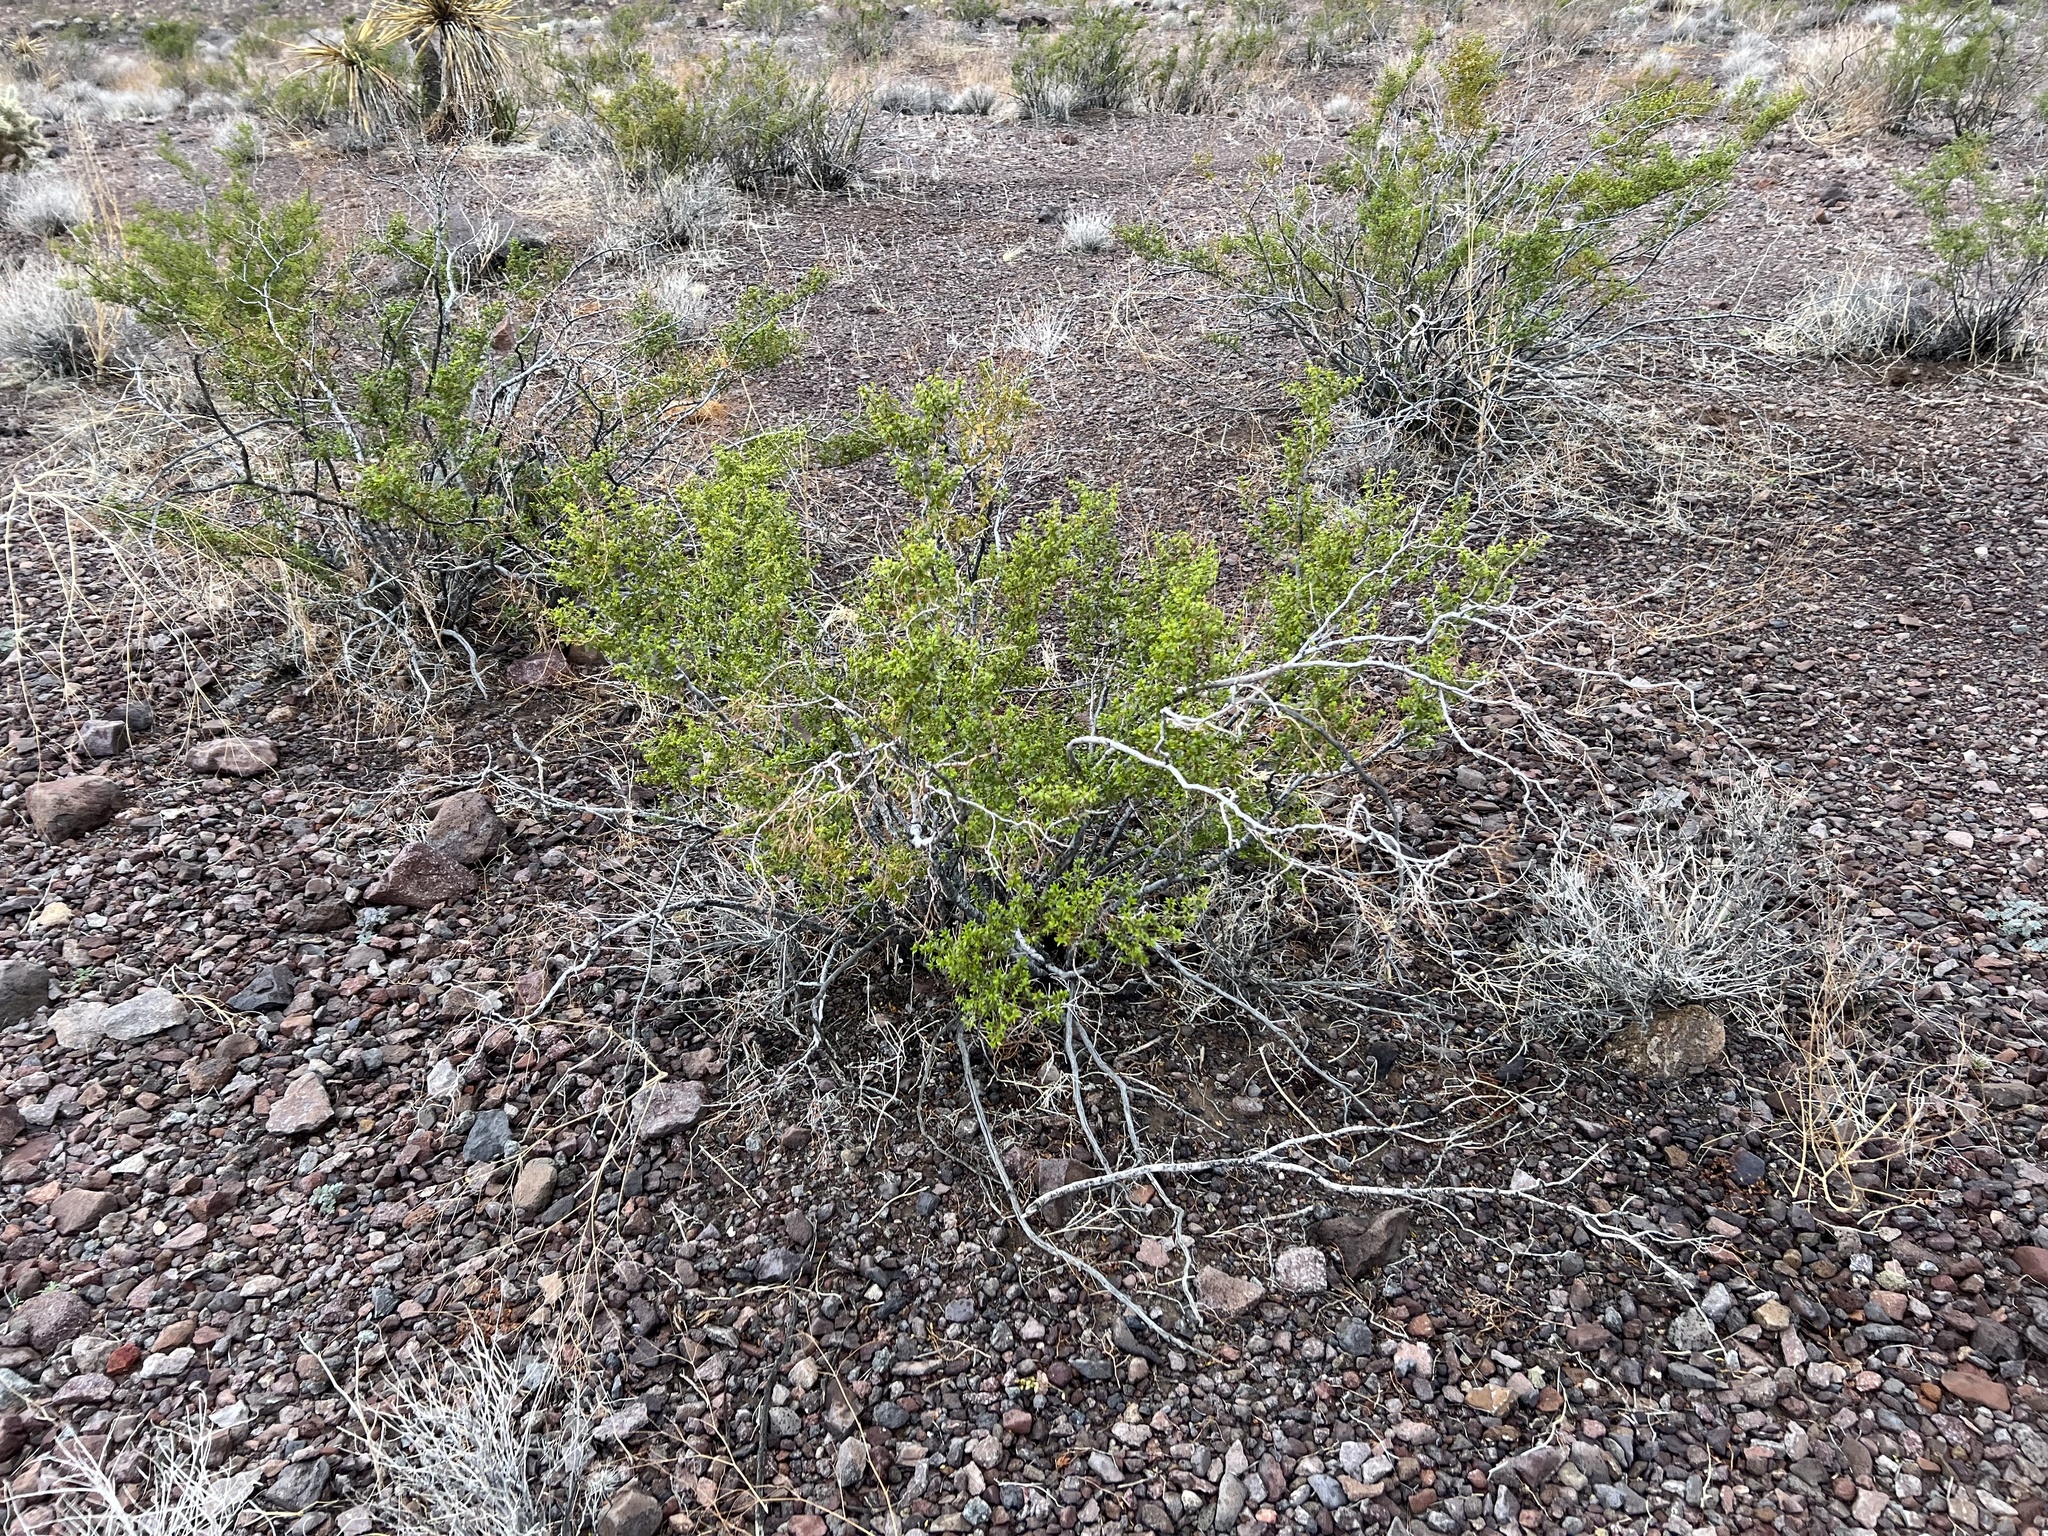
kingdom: Plantae
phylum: Tracheophyta
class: Magnoliopsida
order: Zygophyllales
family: Zygophyllaceae
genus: Larrea
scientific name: Larrea tridentata
